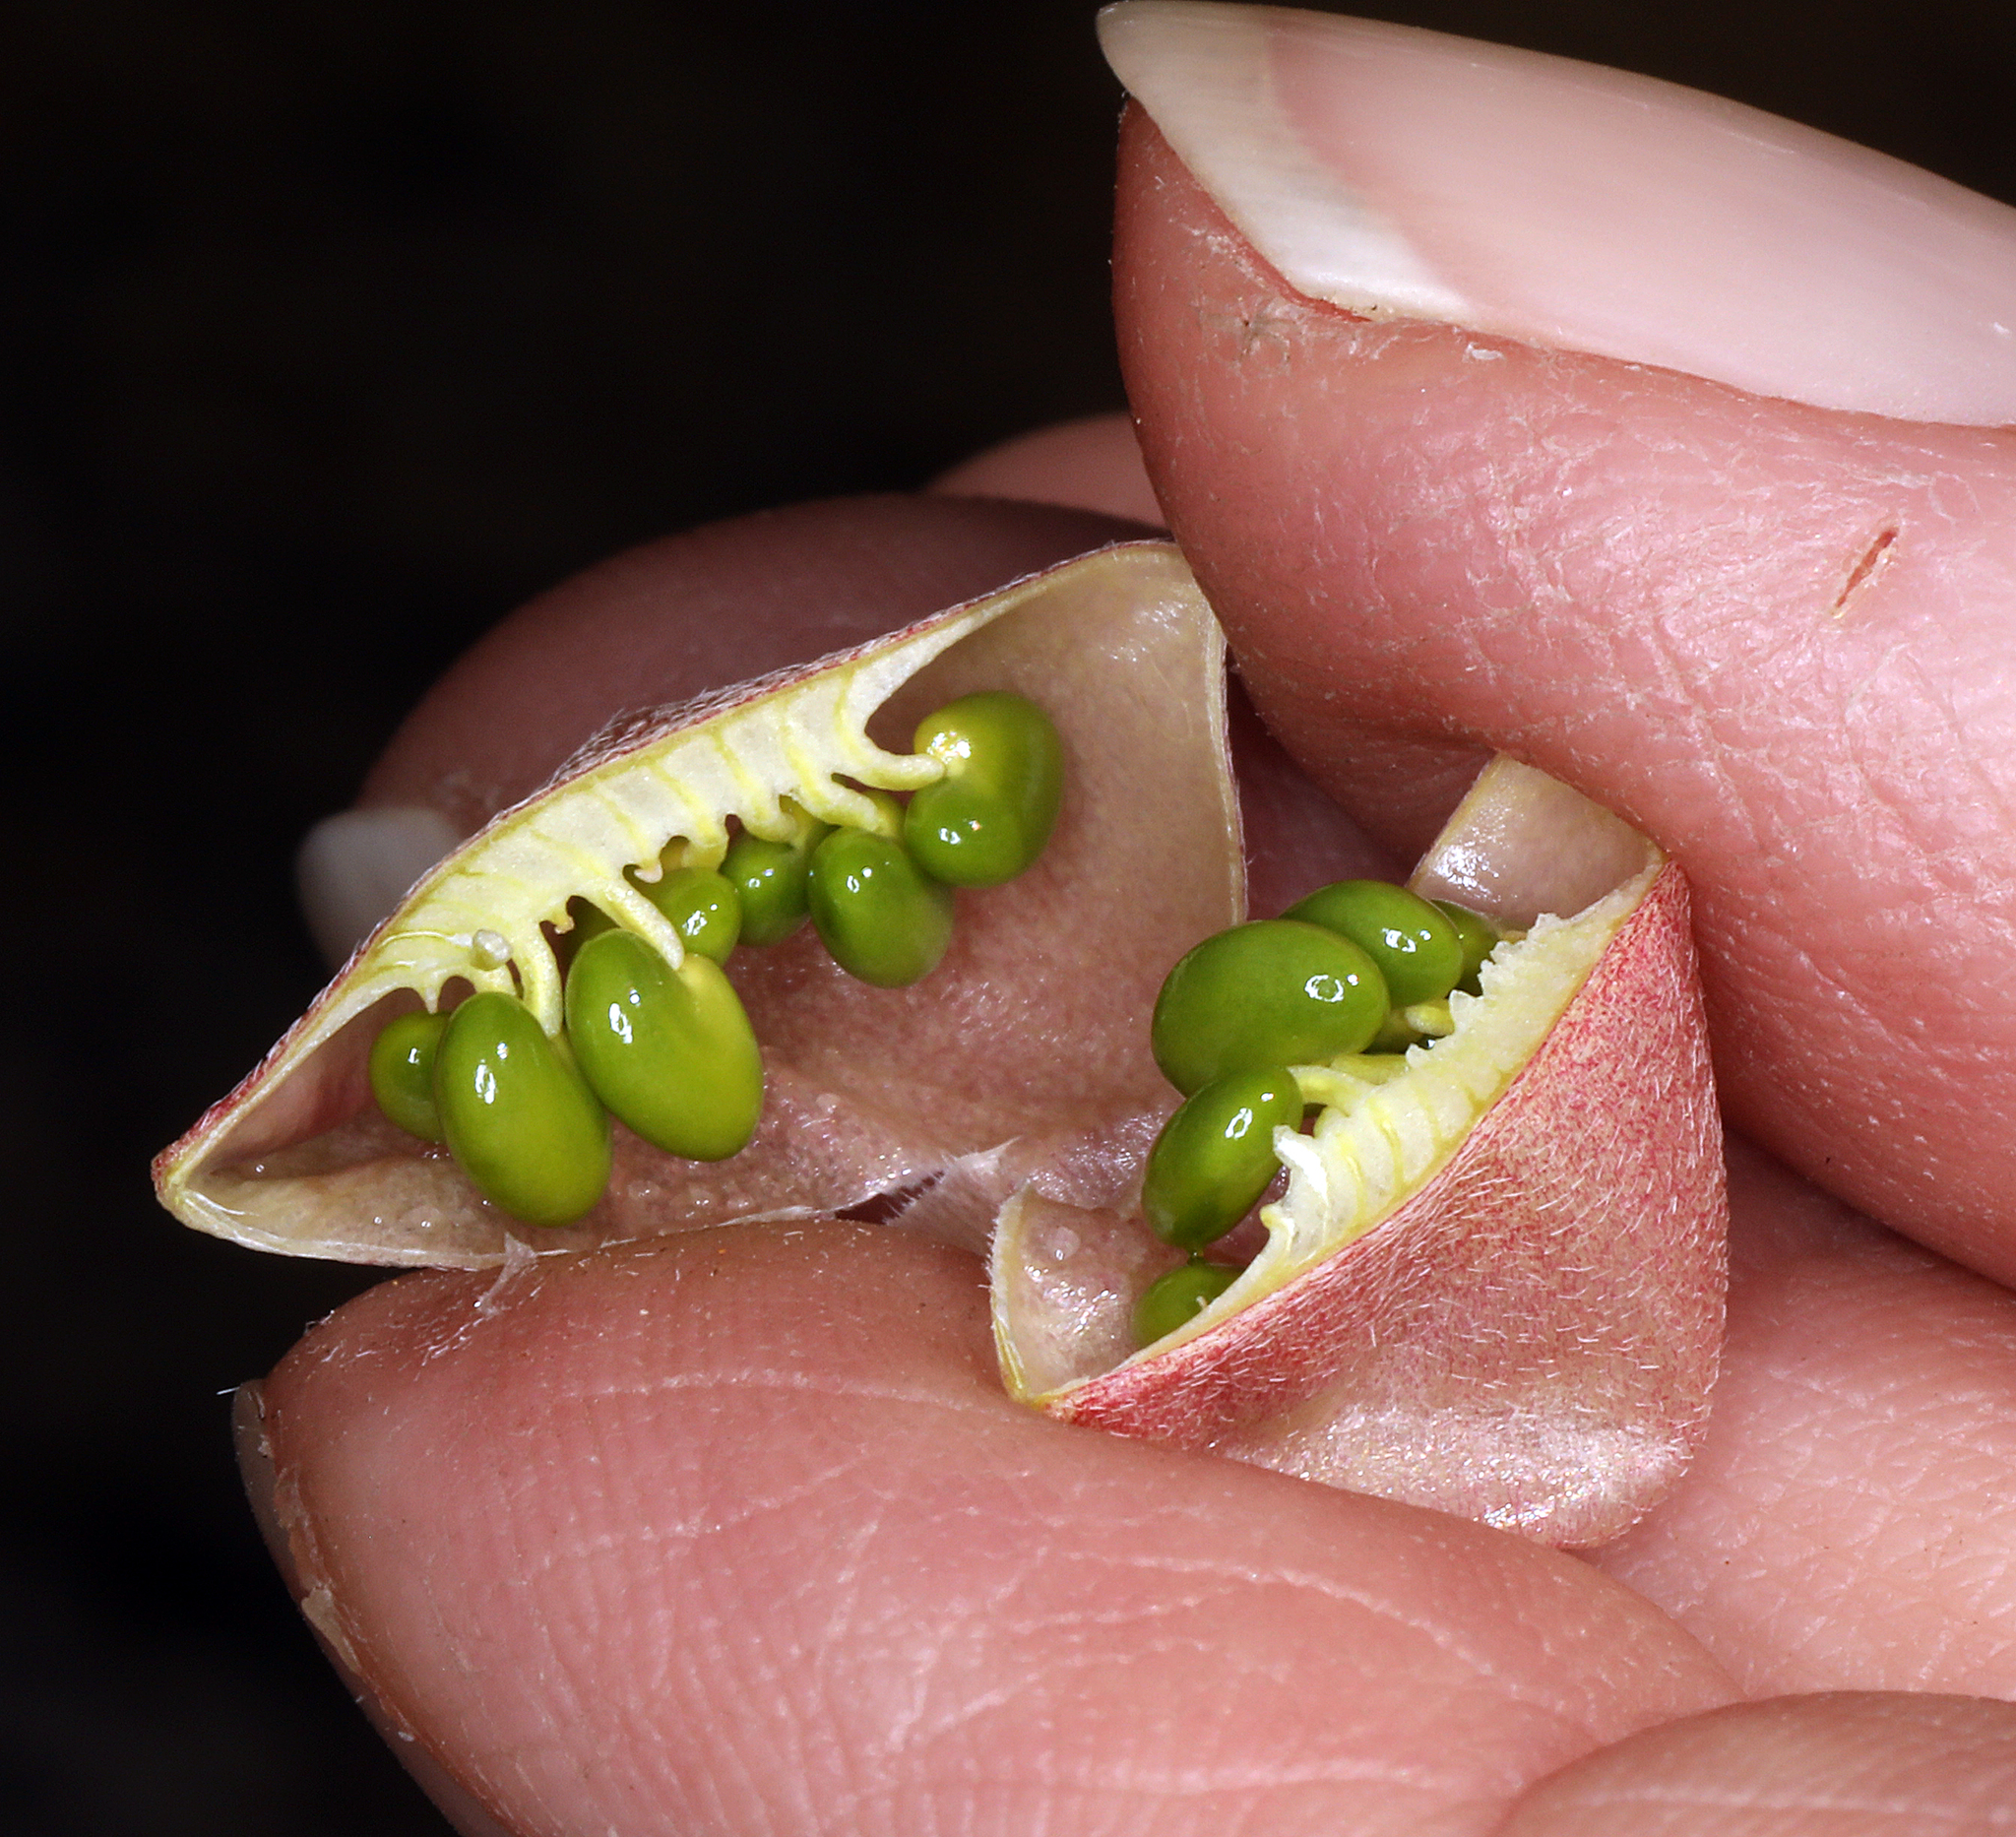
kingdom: Plantae
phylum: Tracheophyta
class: Magnoliopsida
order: Fabales
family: Fabaceae
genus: Astragalus
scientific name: Astragalus nutans
